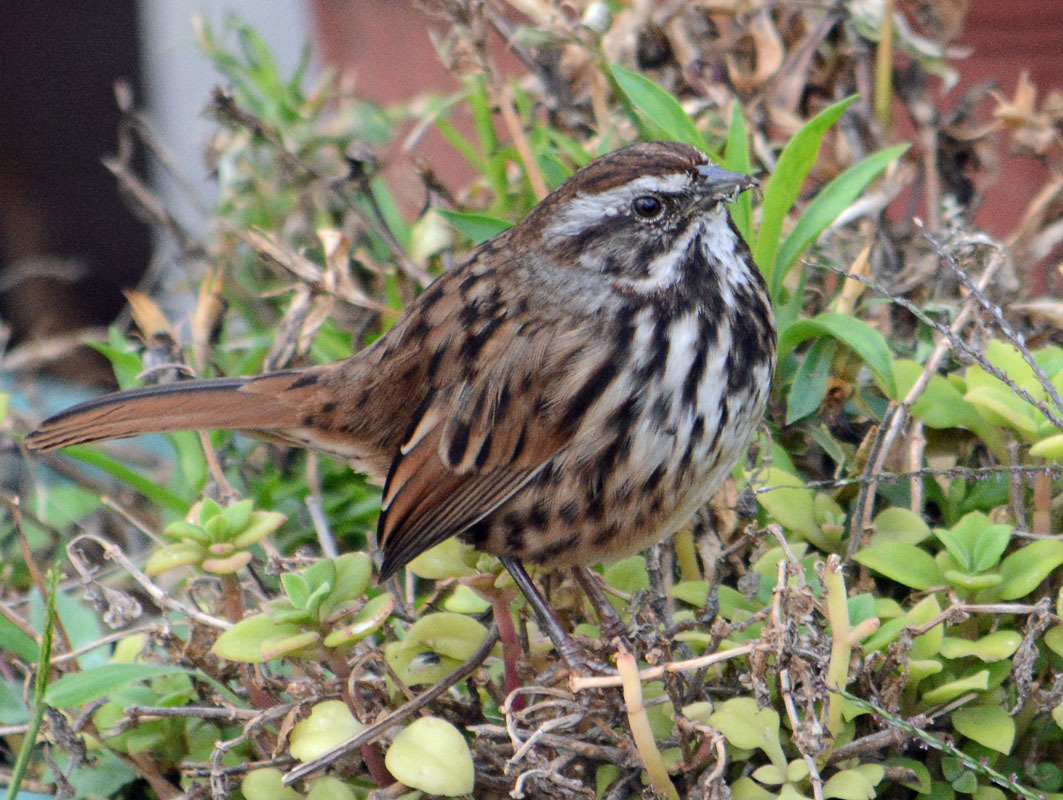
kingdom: Animalia
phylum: Chordata
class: Aves
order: Passeriformes
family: Passerellidae
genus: Melospiza
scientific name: Melospiza melodia
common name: Song sparrow
